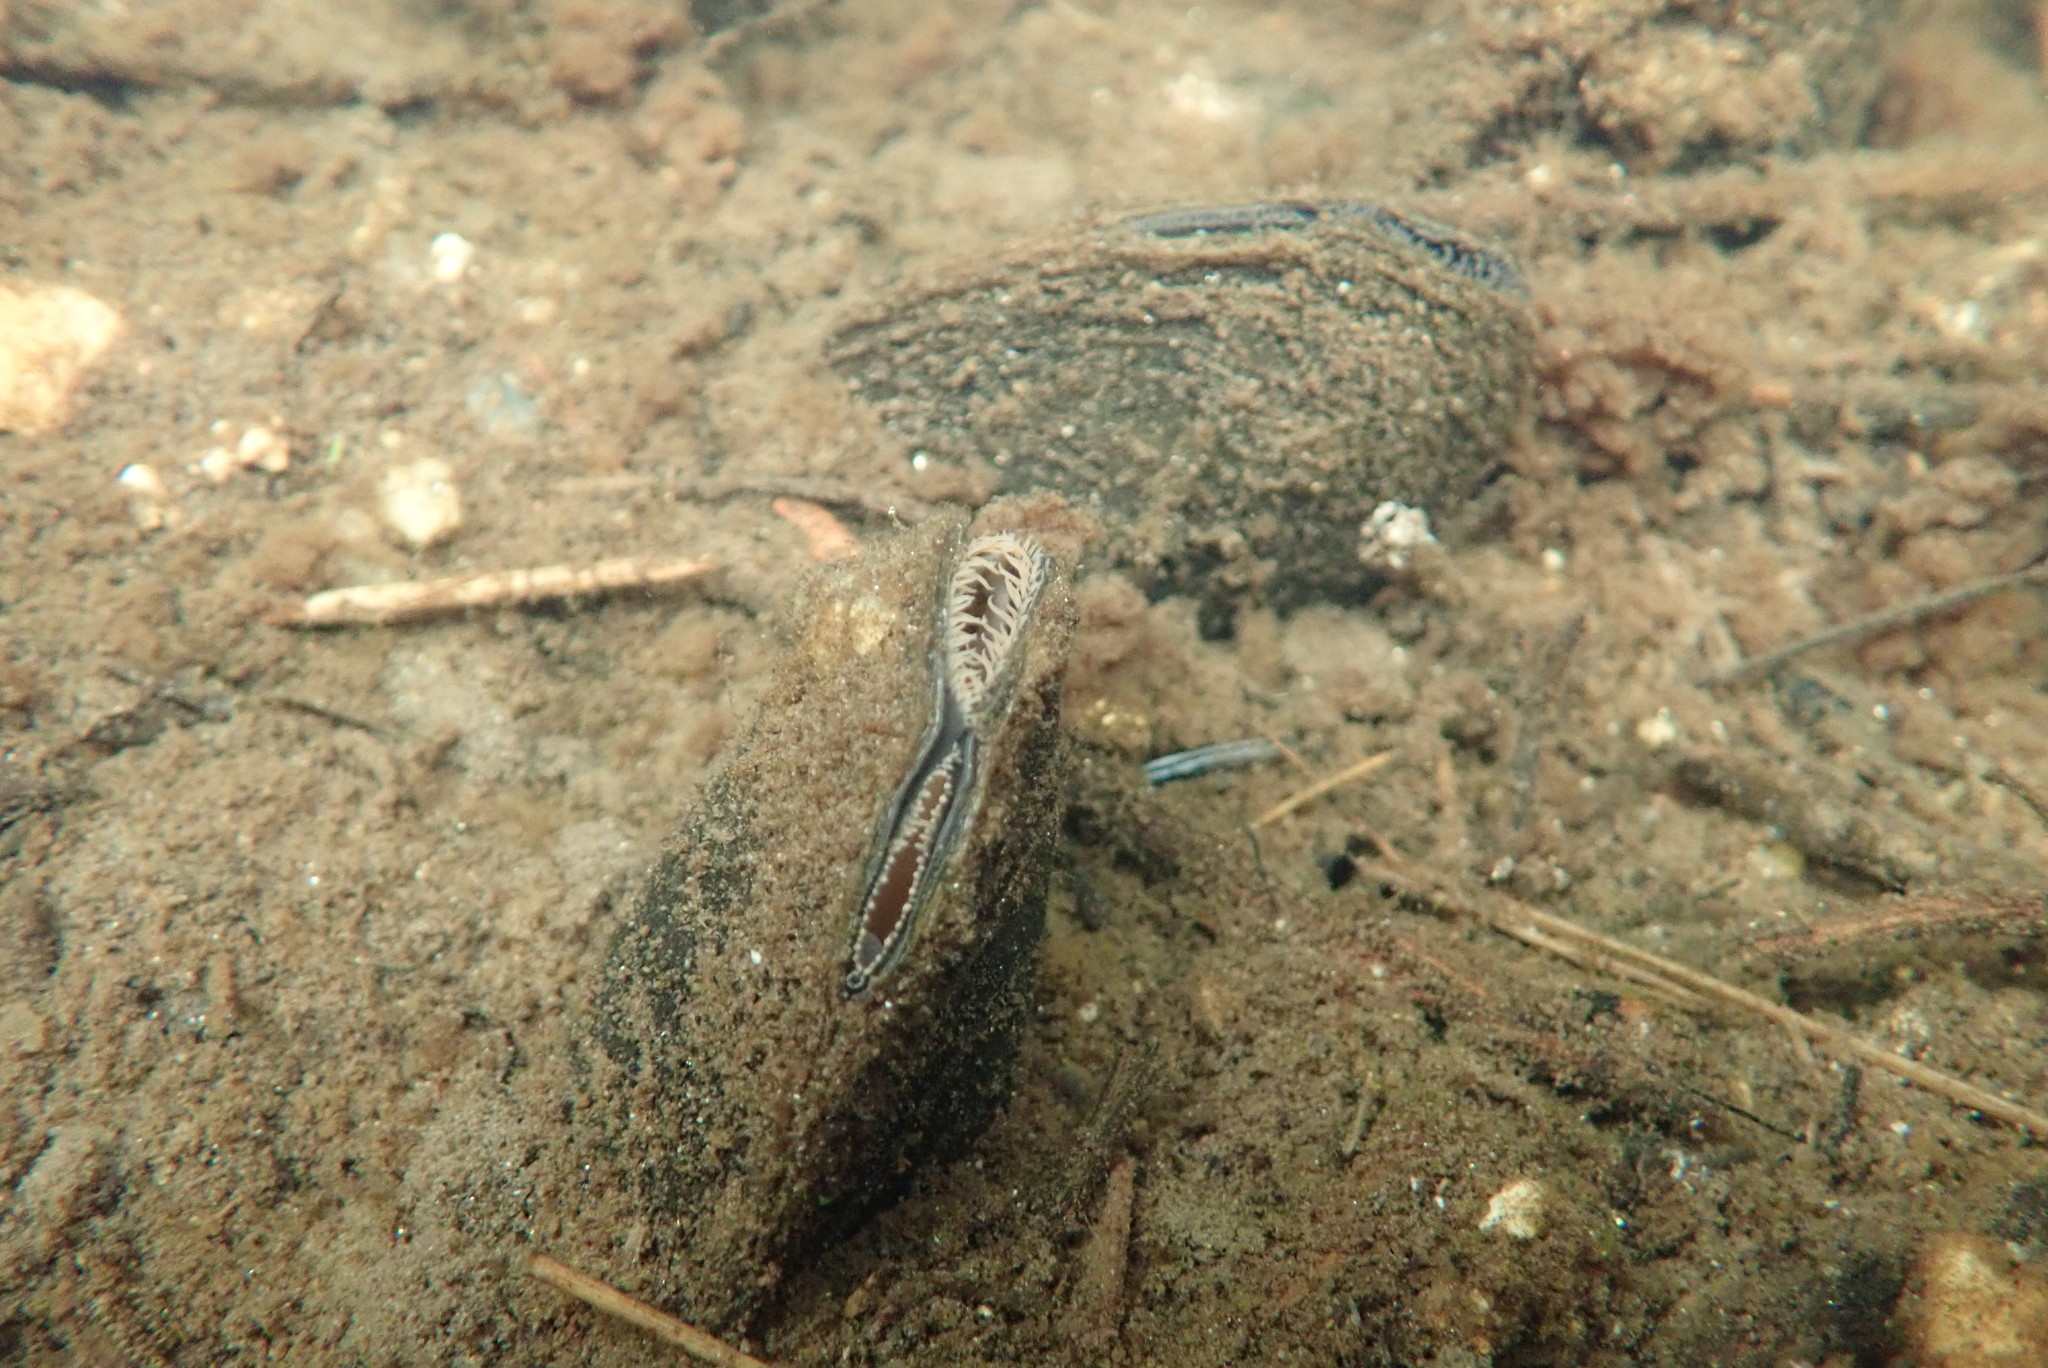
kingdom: Animalia
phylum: Mollusca
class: Bivalvia
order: Unionida
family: Unionidae
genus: Elliptio
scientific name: Elliptio complanata
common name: Eastern elliptio
